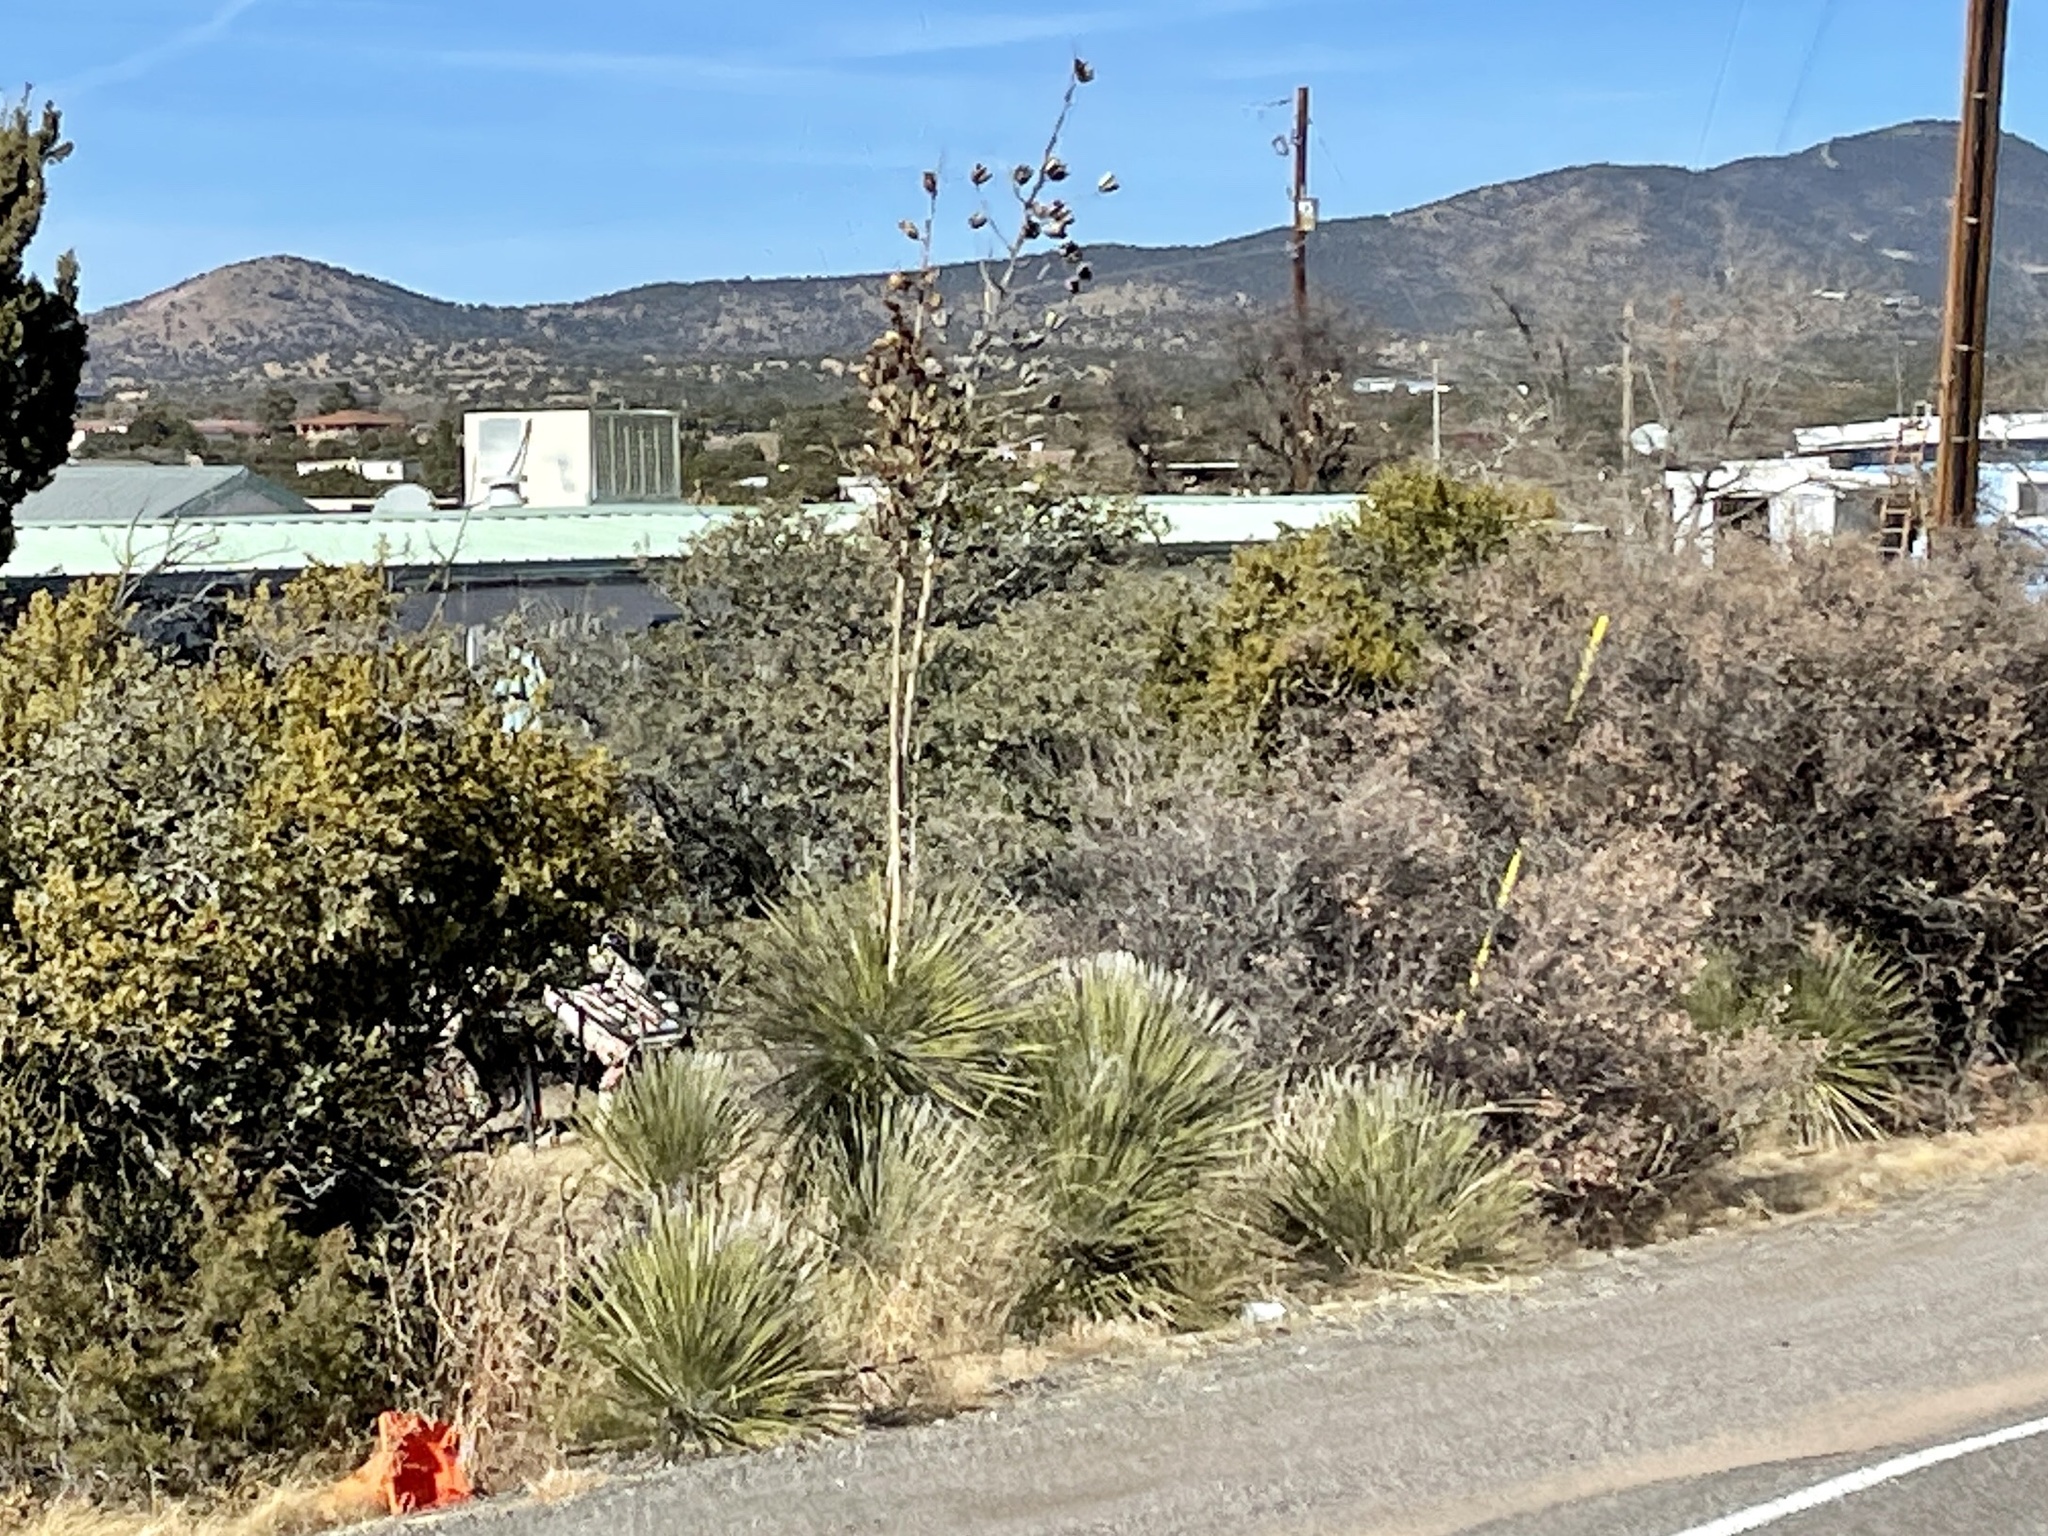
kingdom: Plantae
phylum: Tracheophyta
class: Liliopsida
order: Asparagales
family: Asparagaceae
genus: Yucca
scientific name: Yucca elata
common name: Palmella
